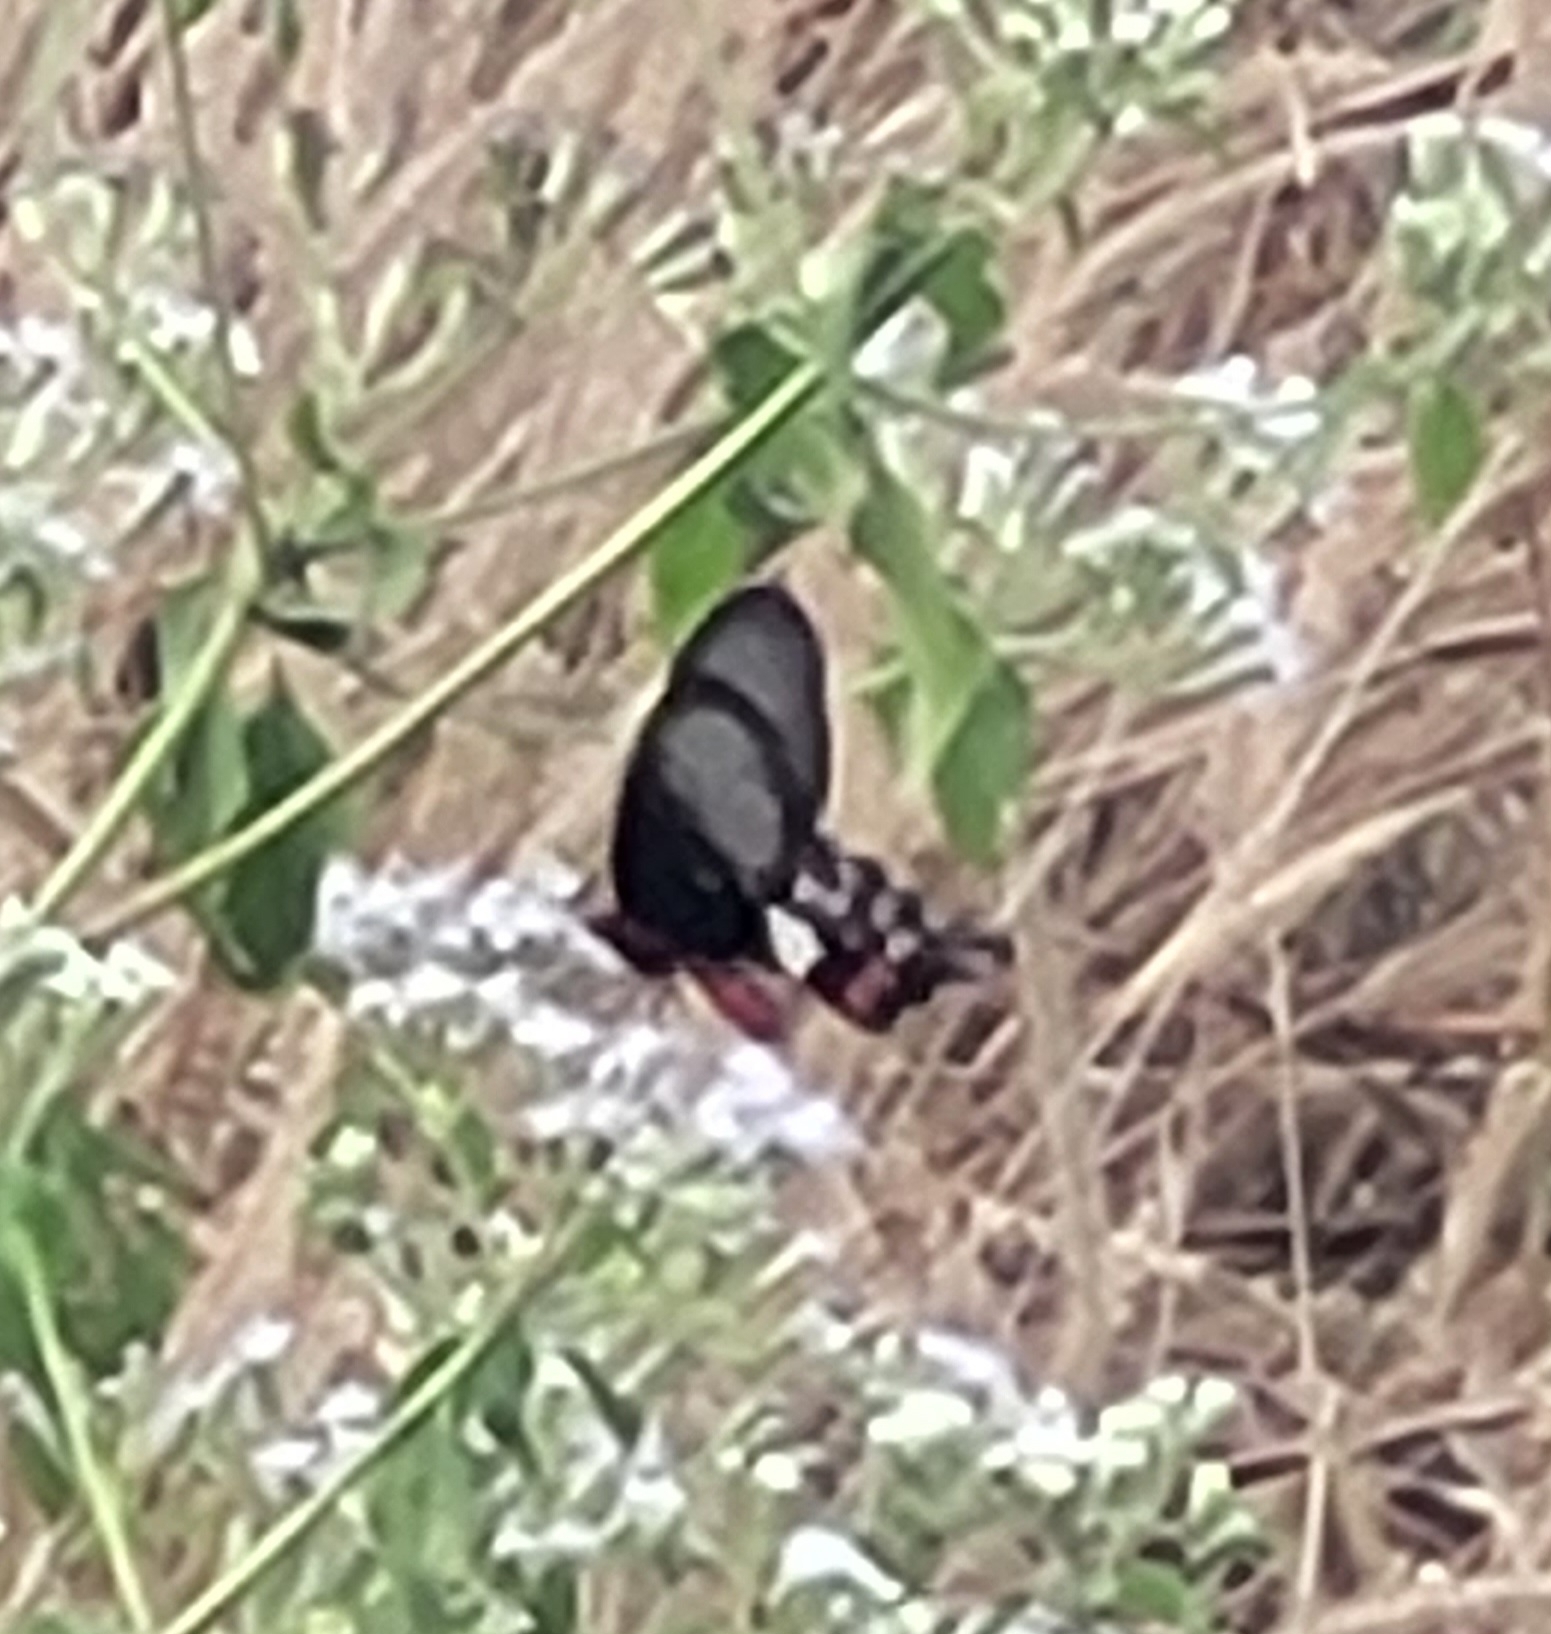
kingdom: Animalia
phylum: Arthropoda
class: Insecta
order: Lepidoptera
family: Papilionidae
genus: Pachliopta
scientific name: Pachliopta aristolochiae
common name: Common rose
